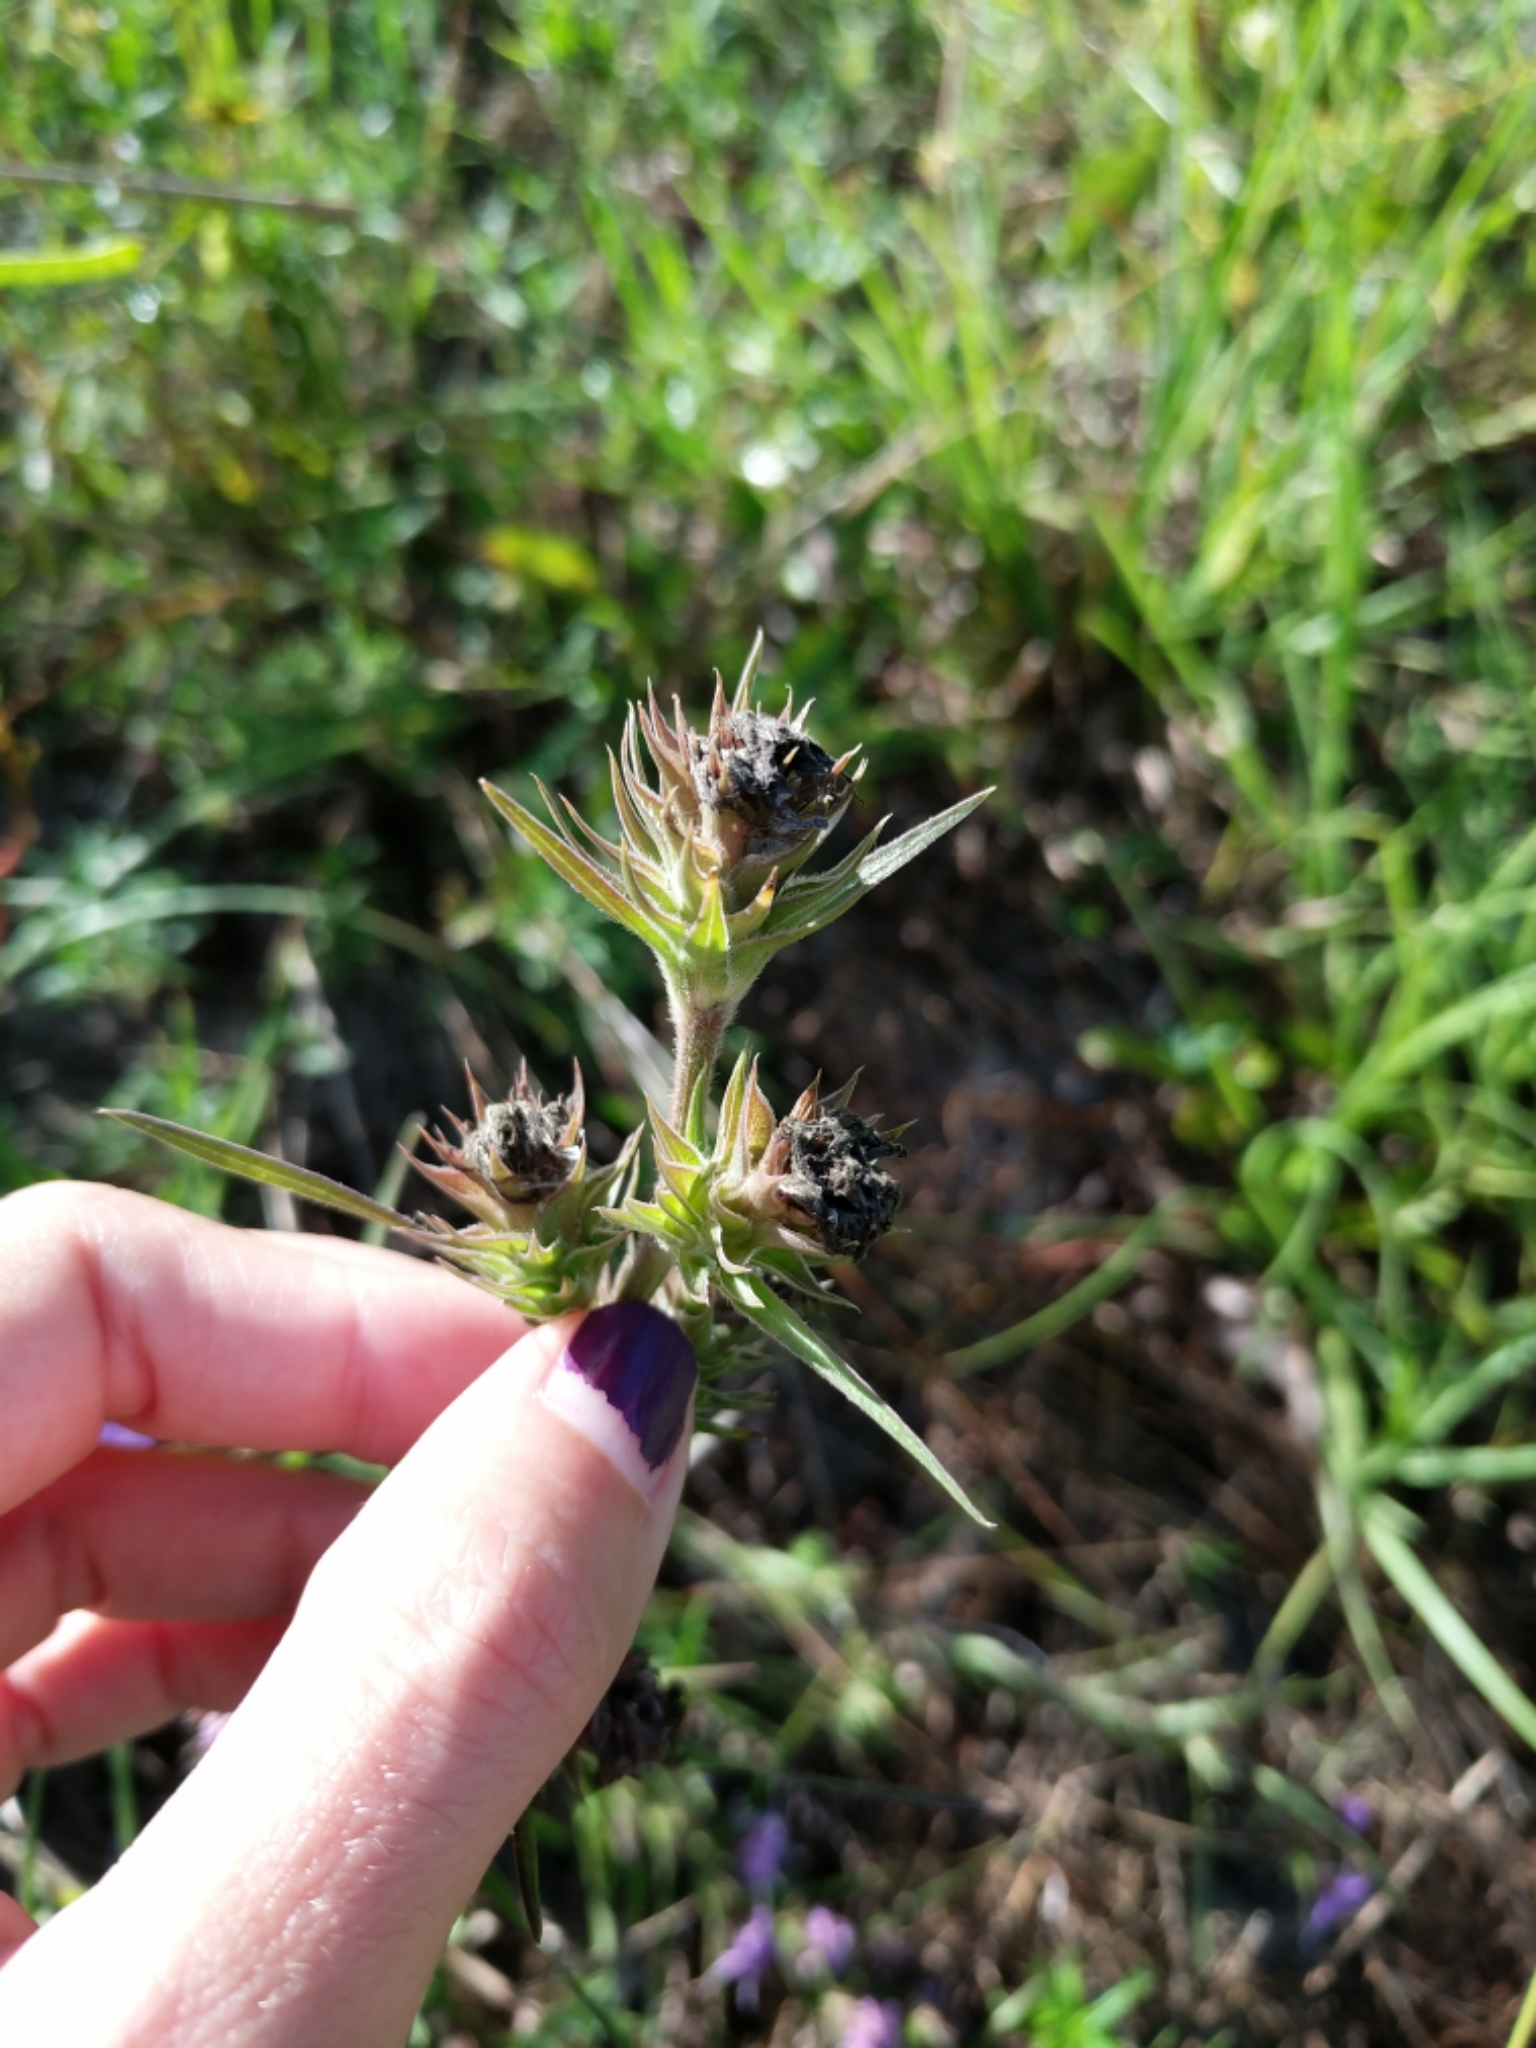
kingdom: Plantae
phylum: Tracheophyta
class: Magnoliopsida
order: Asterales
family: Asteraceae
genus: Liatris
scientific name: Liatris squarrosa
